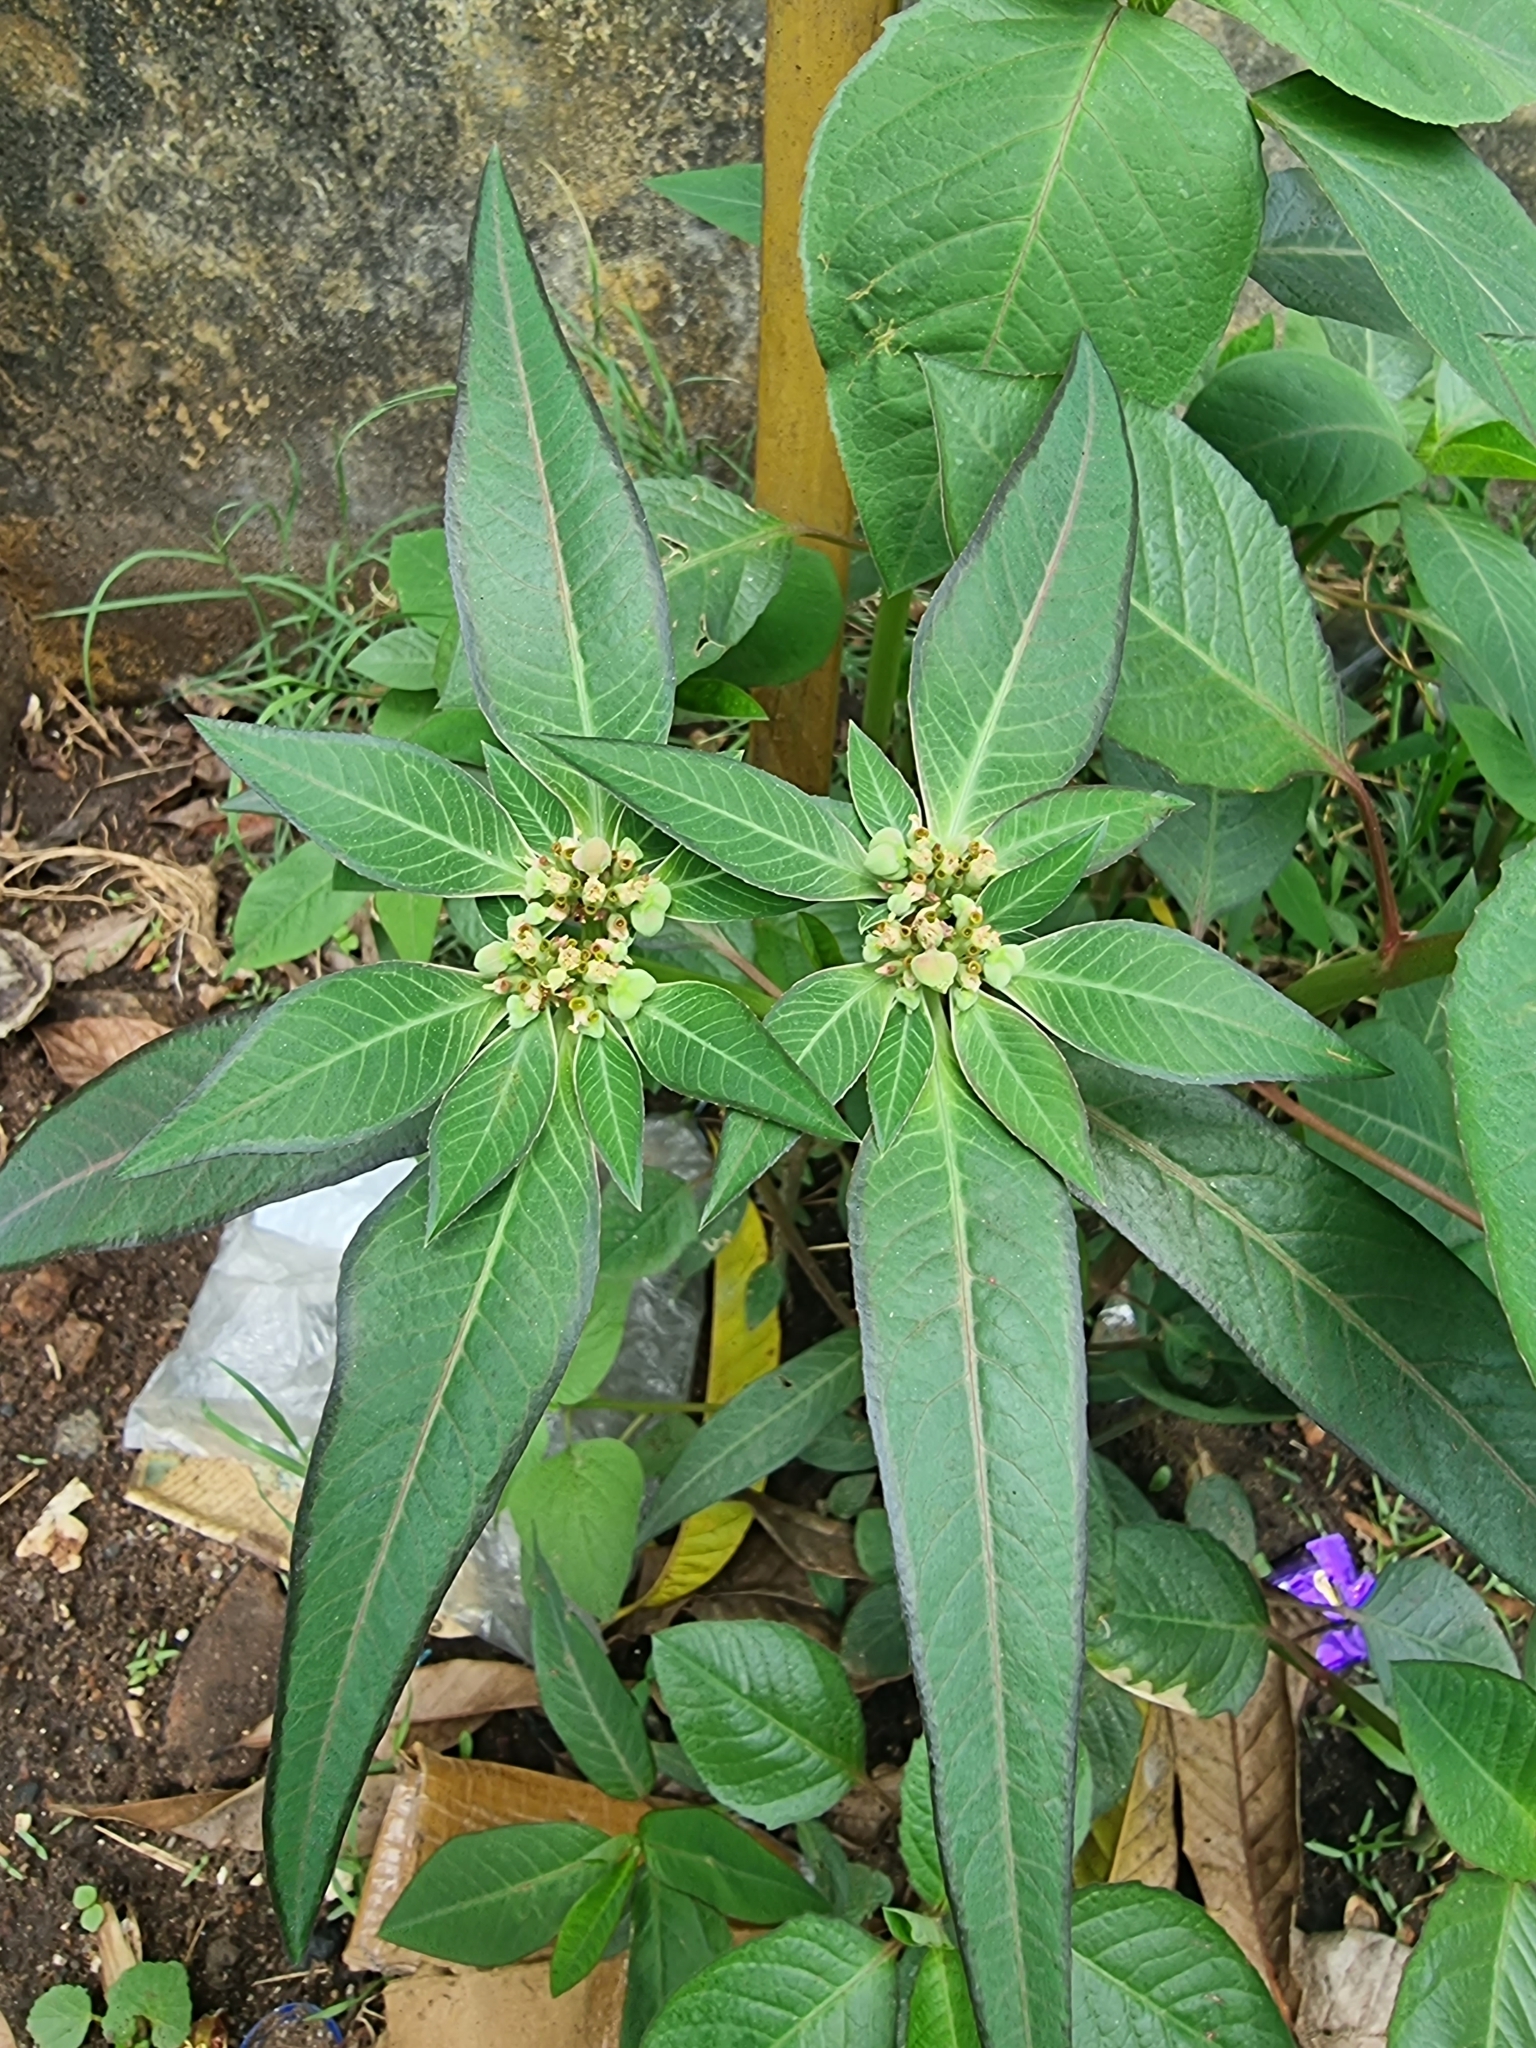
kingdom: Plantae
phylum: Tracheophyta
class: Magnoliopsida
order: Malpighiales
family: Euphorbiaceae
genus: Euphorbia
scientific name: Euphorbia heterophylla
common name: Mexican fireplant
